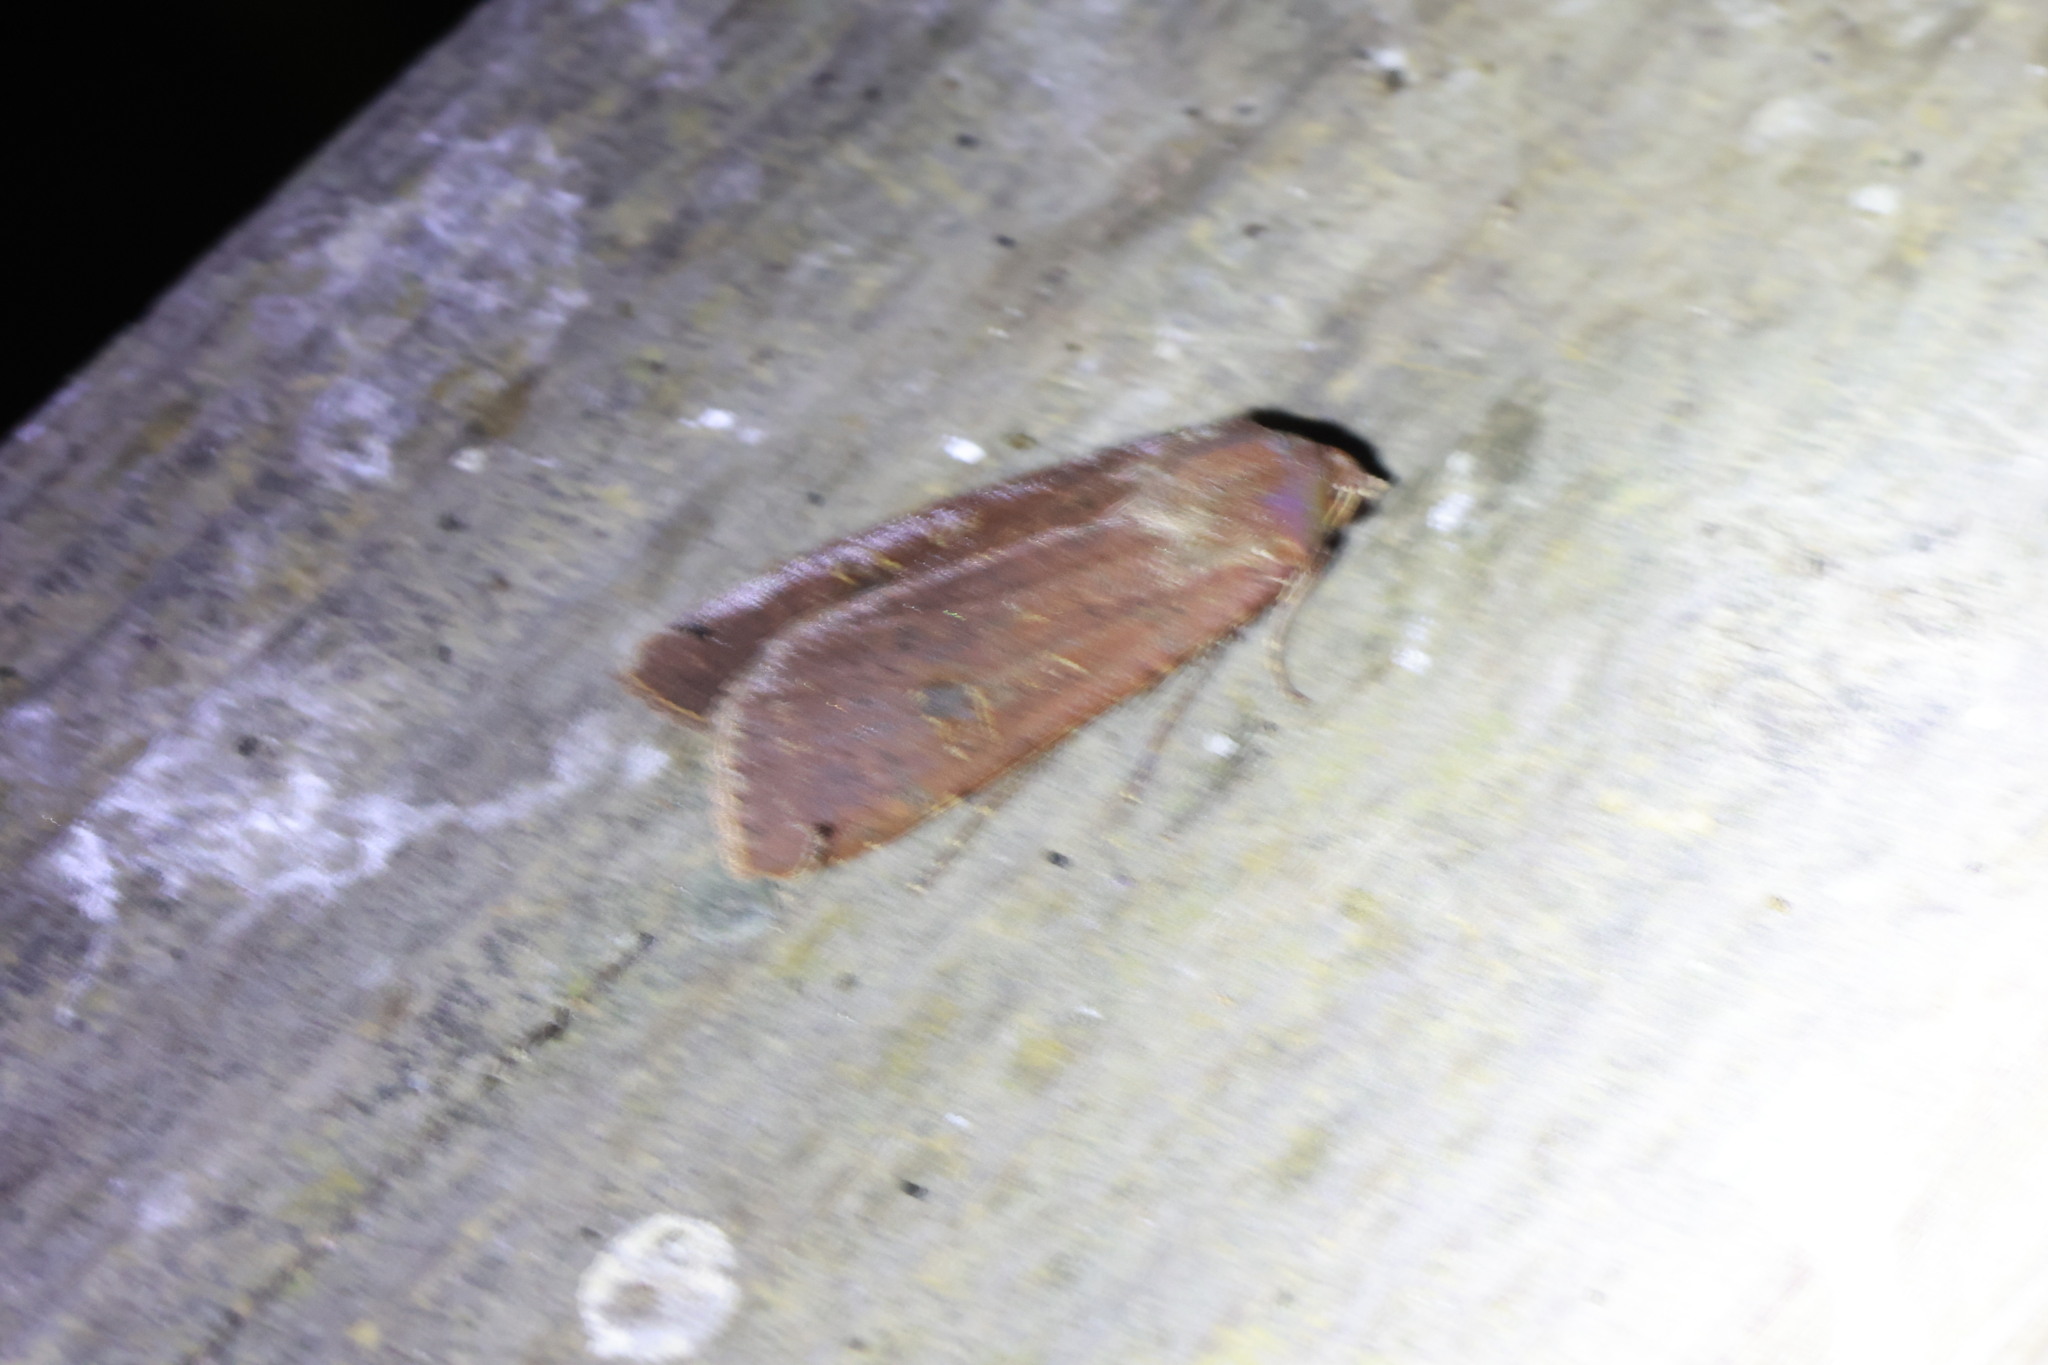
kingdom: Animalia
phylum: Arthropoda
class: Insecta
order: Lepidoptera
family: Noctuidae
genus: Noctua
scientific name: Noctua pronuba
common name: Large yellow underwing
